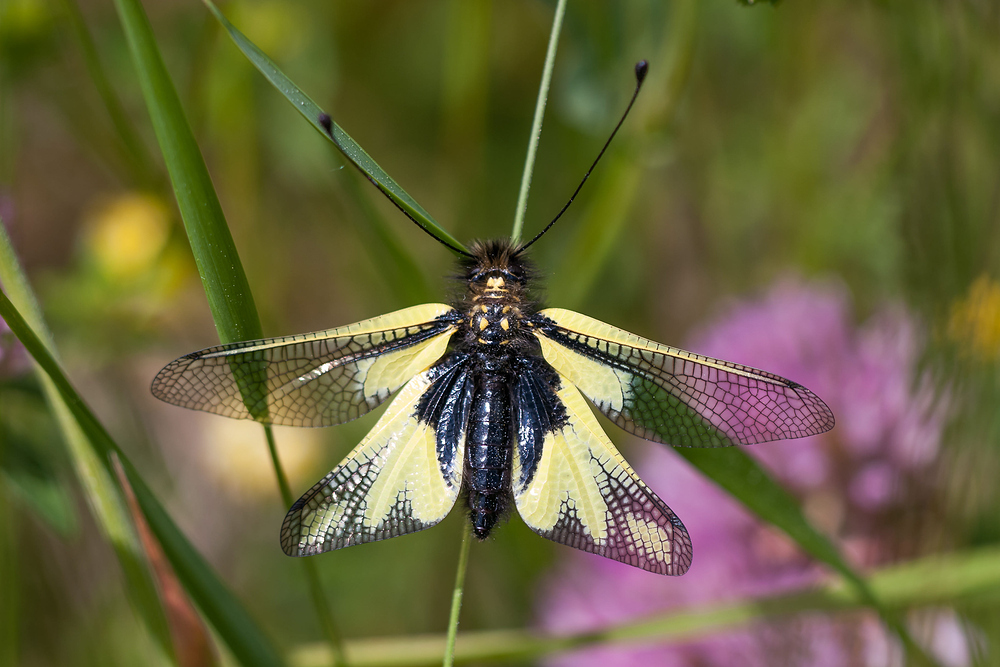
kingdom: Animalia
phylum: Arthropoda
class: Insecta
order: Neuroptera
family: Ascalaphidae
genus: Libelloides
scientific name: Libelloides coccajus
